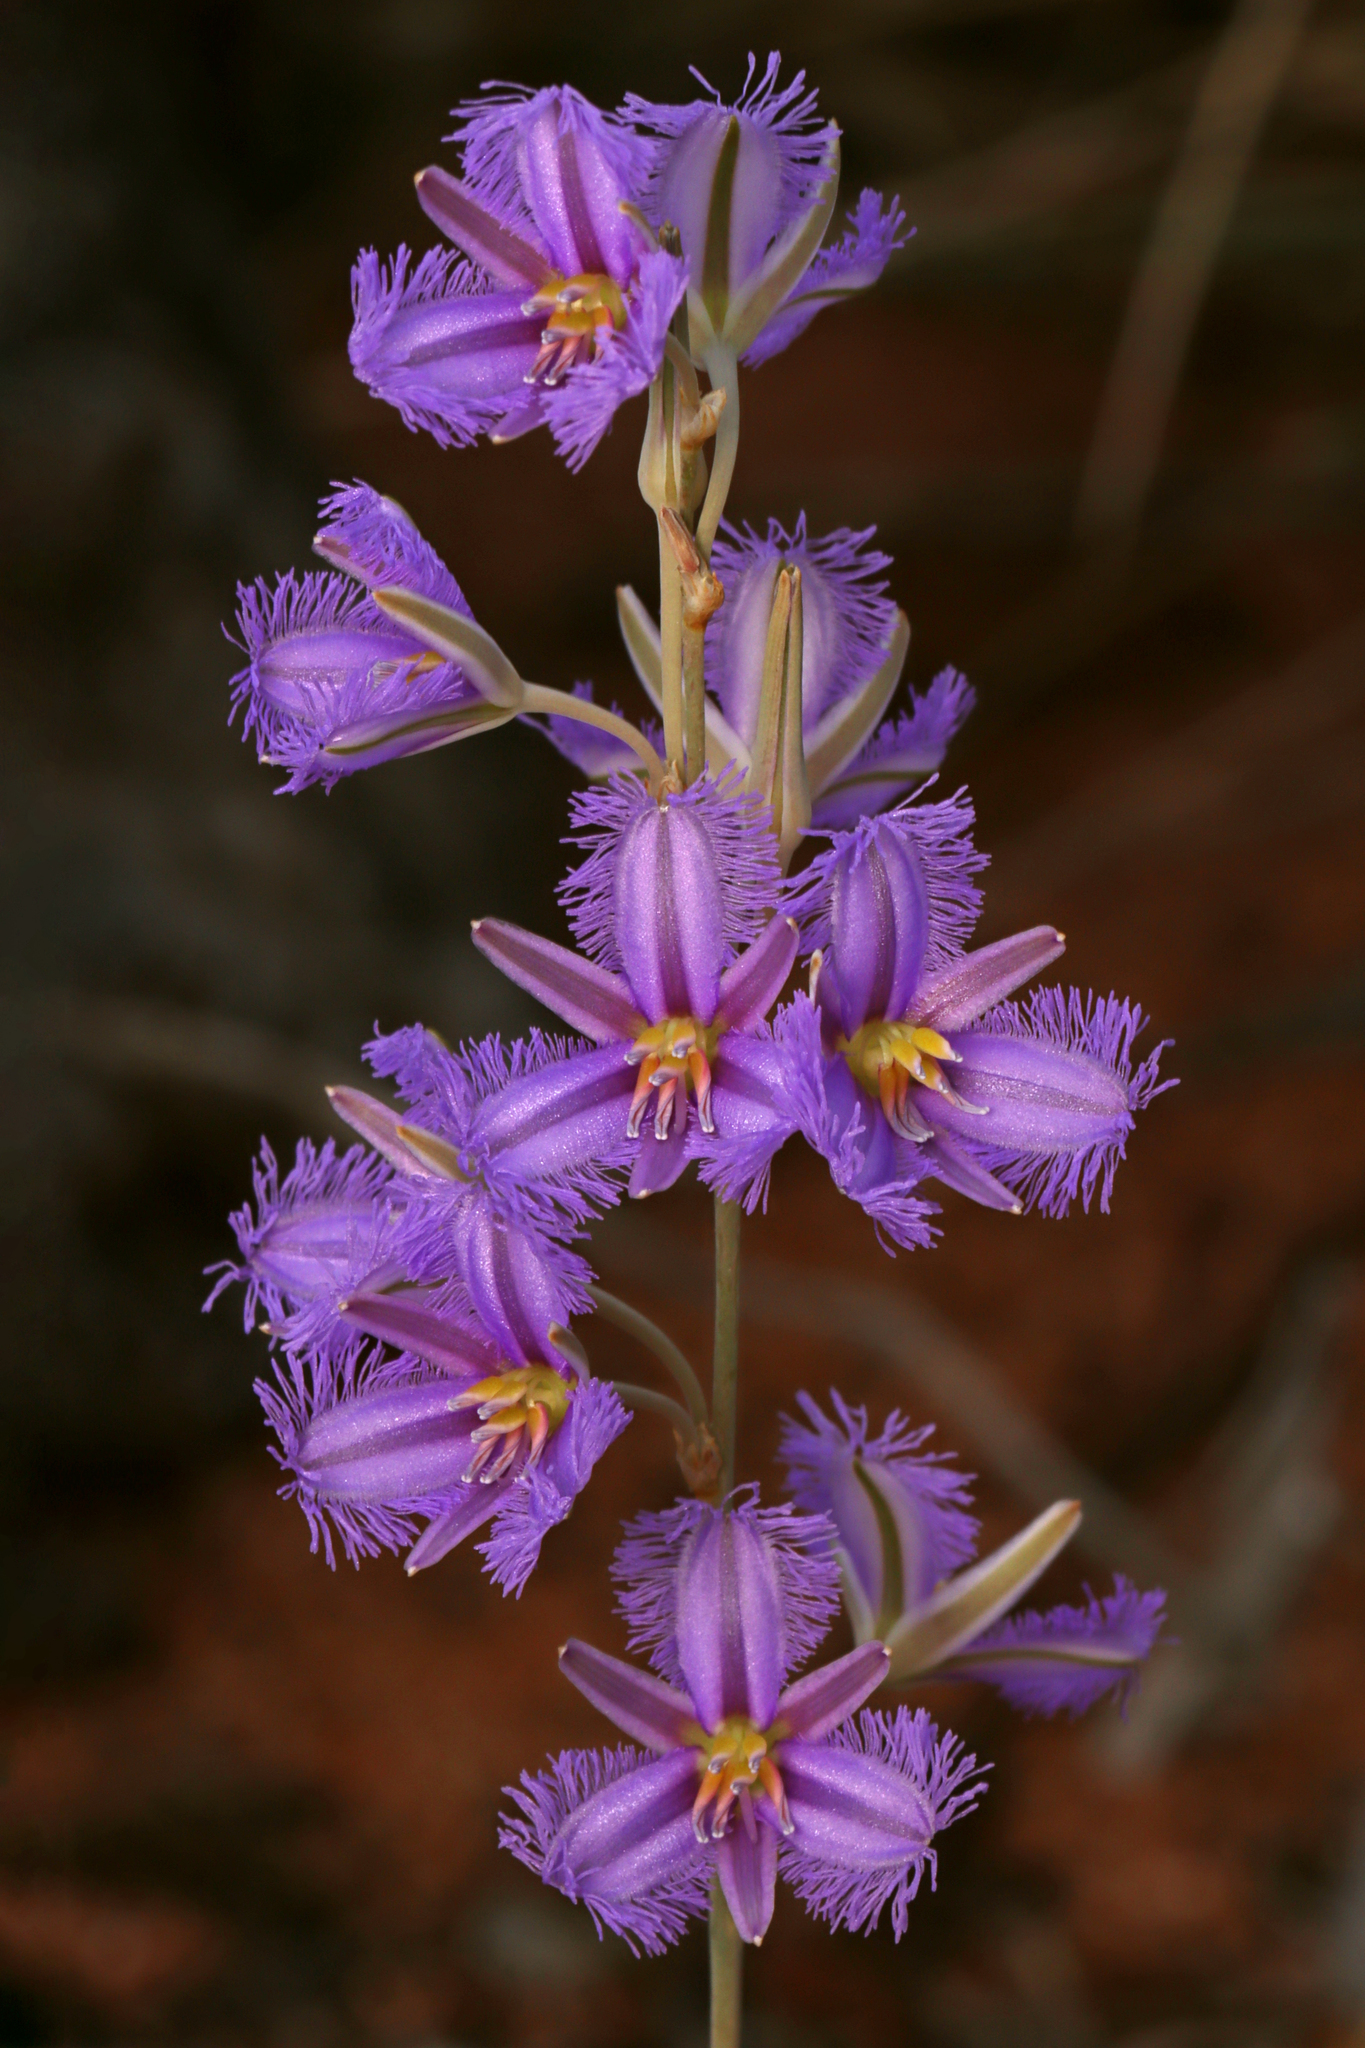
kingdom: Plantae
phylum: Tracheophyta
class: Liliopsida
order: Asparagales
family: Asparagaceae
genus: Thysanotus
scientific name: Thysanotus baueri
